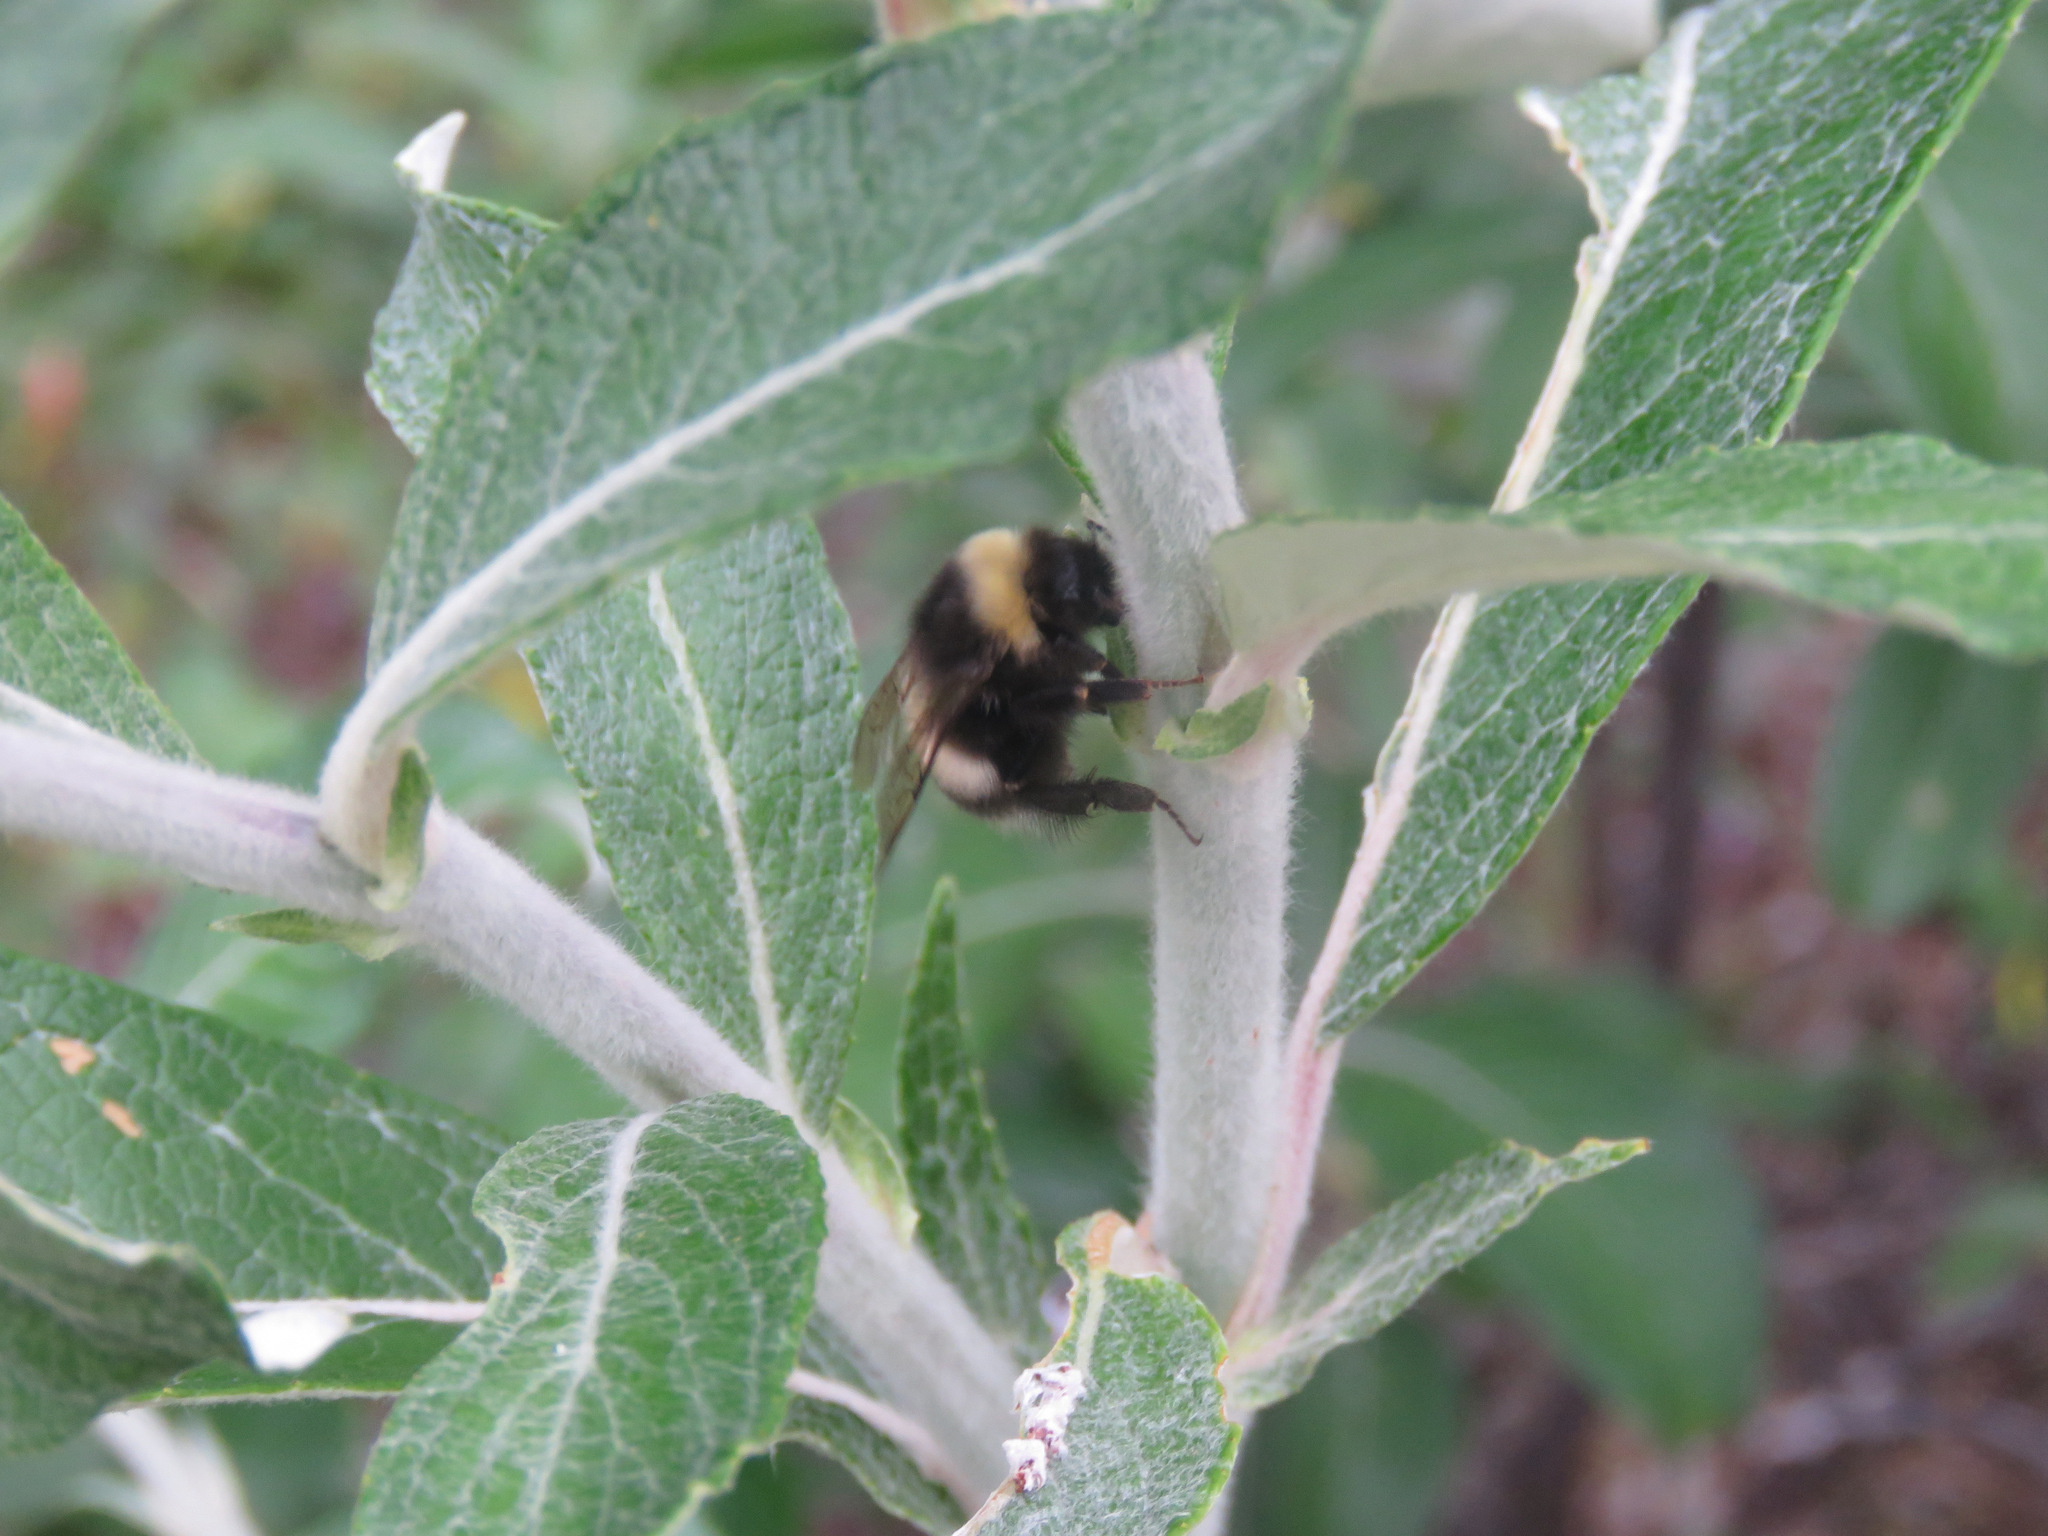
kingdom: Animalia
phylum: Arthropoda
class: Insecta
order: Hymenoptera
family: Apidae
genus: Bombus
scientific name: Bombus cryptarum
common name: Cryptic bumblebee
